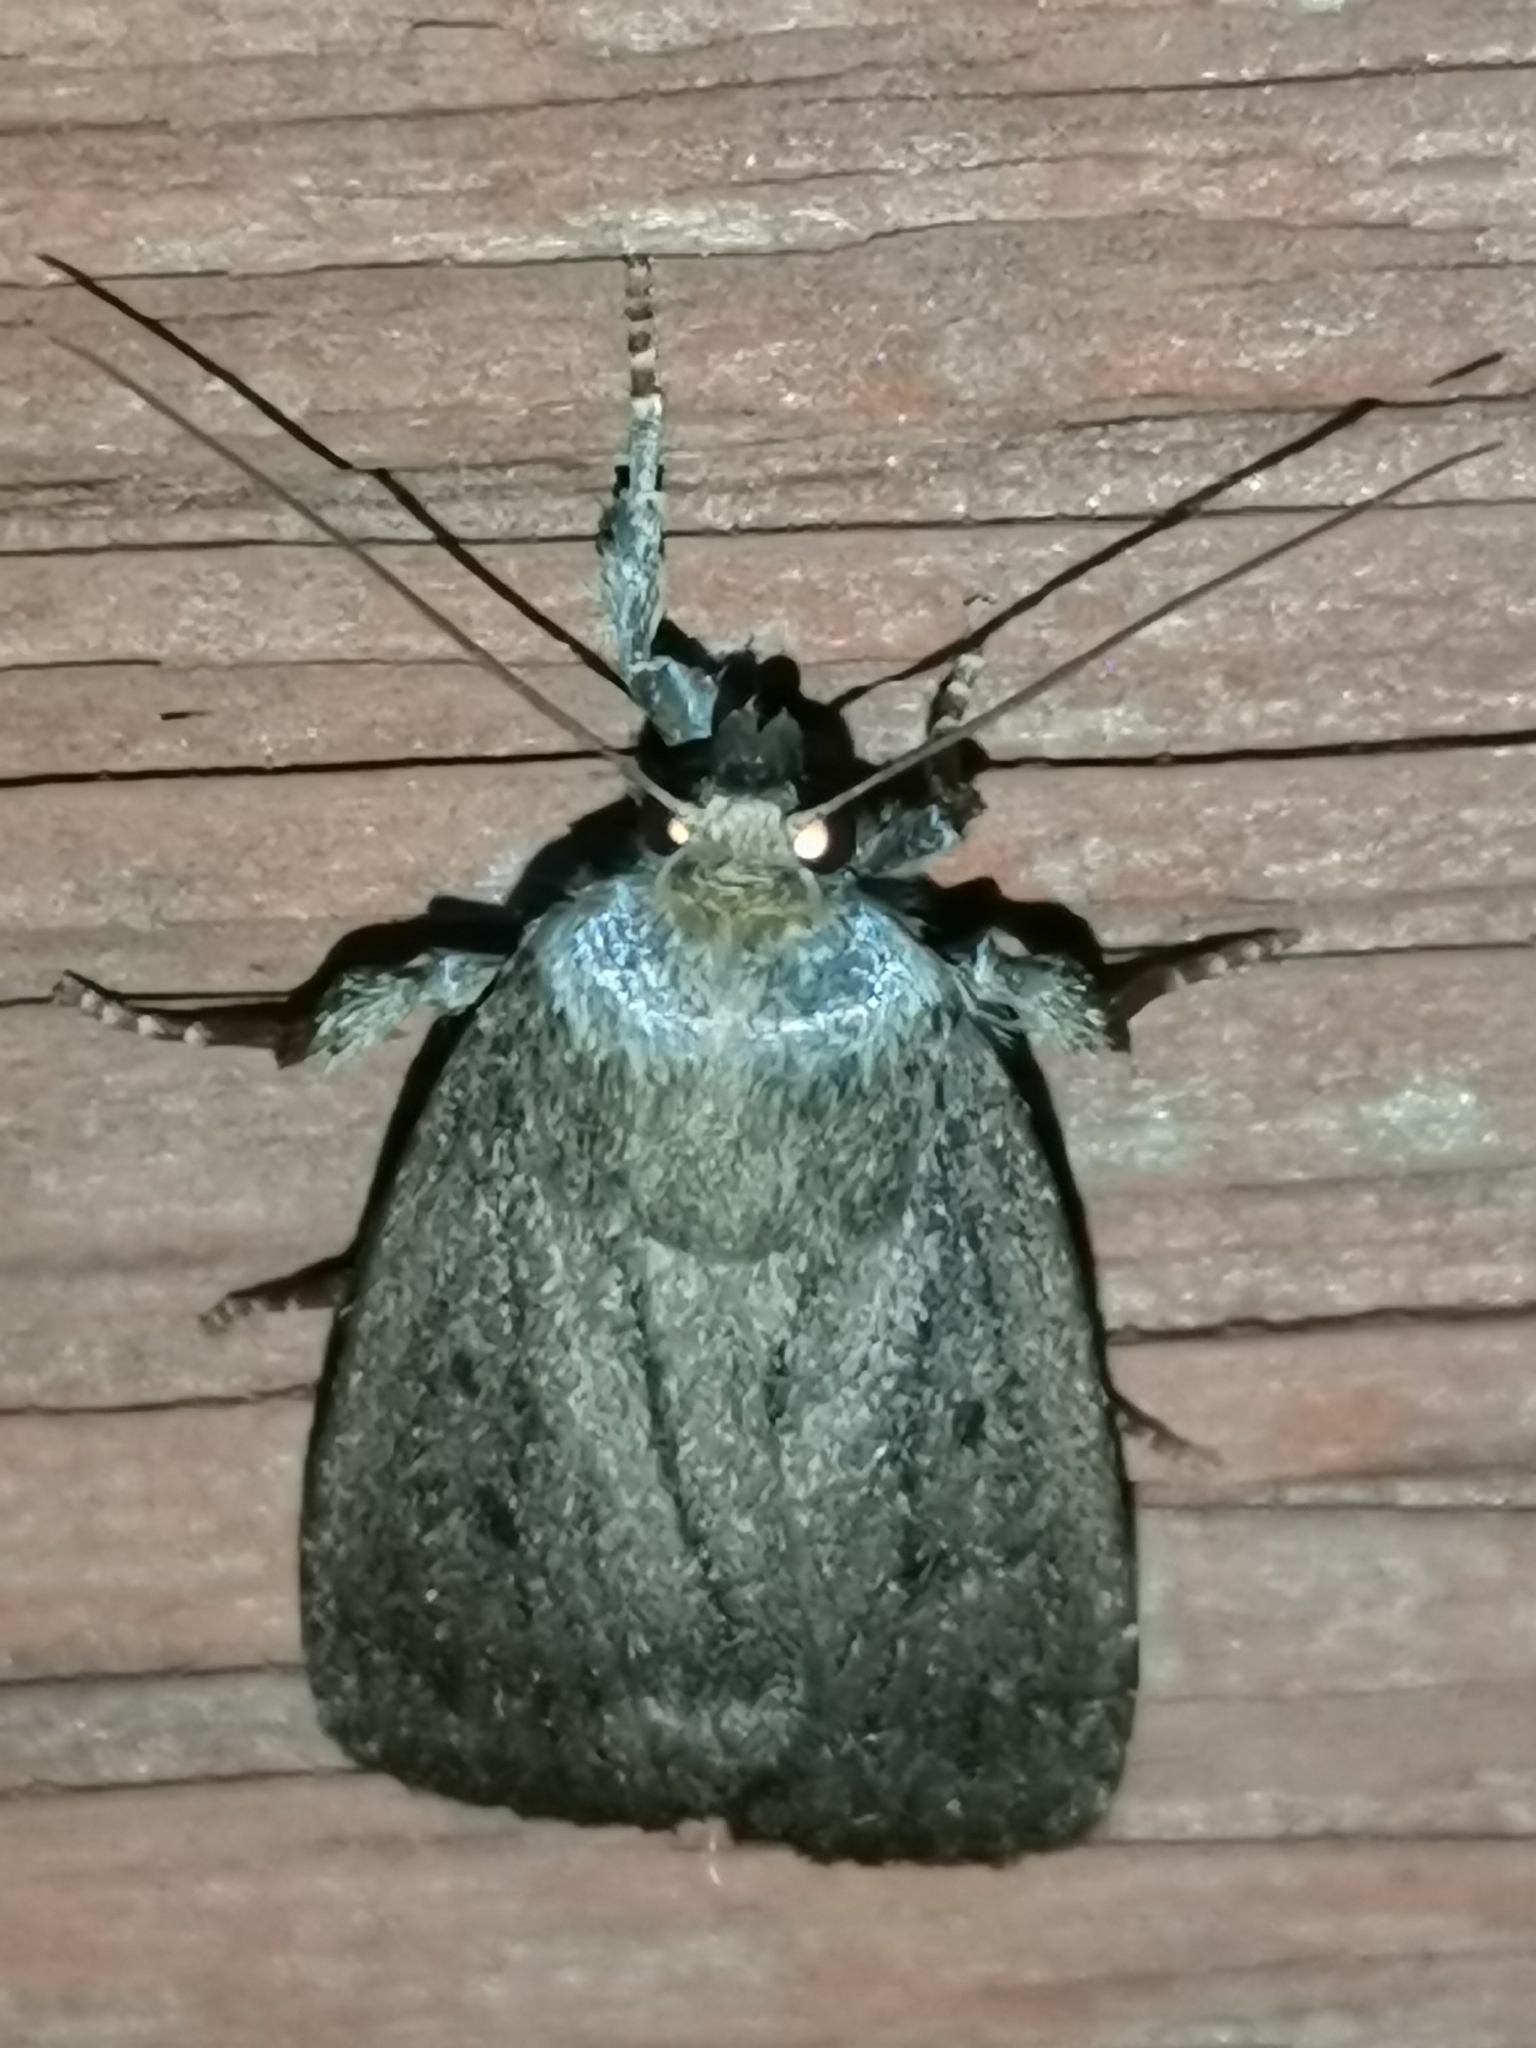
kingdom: Animalia
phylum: Arthropoda
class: Insecta
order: Lepidoptera
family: Noctuidae
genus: Amphipyra
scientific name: Amphipyra tragopoginis
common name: Mouse moth
